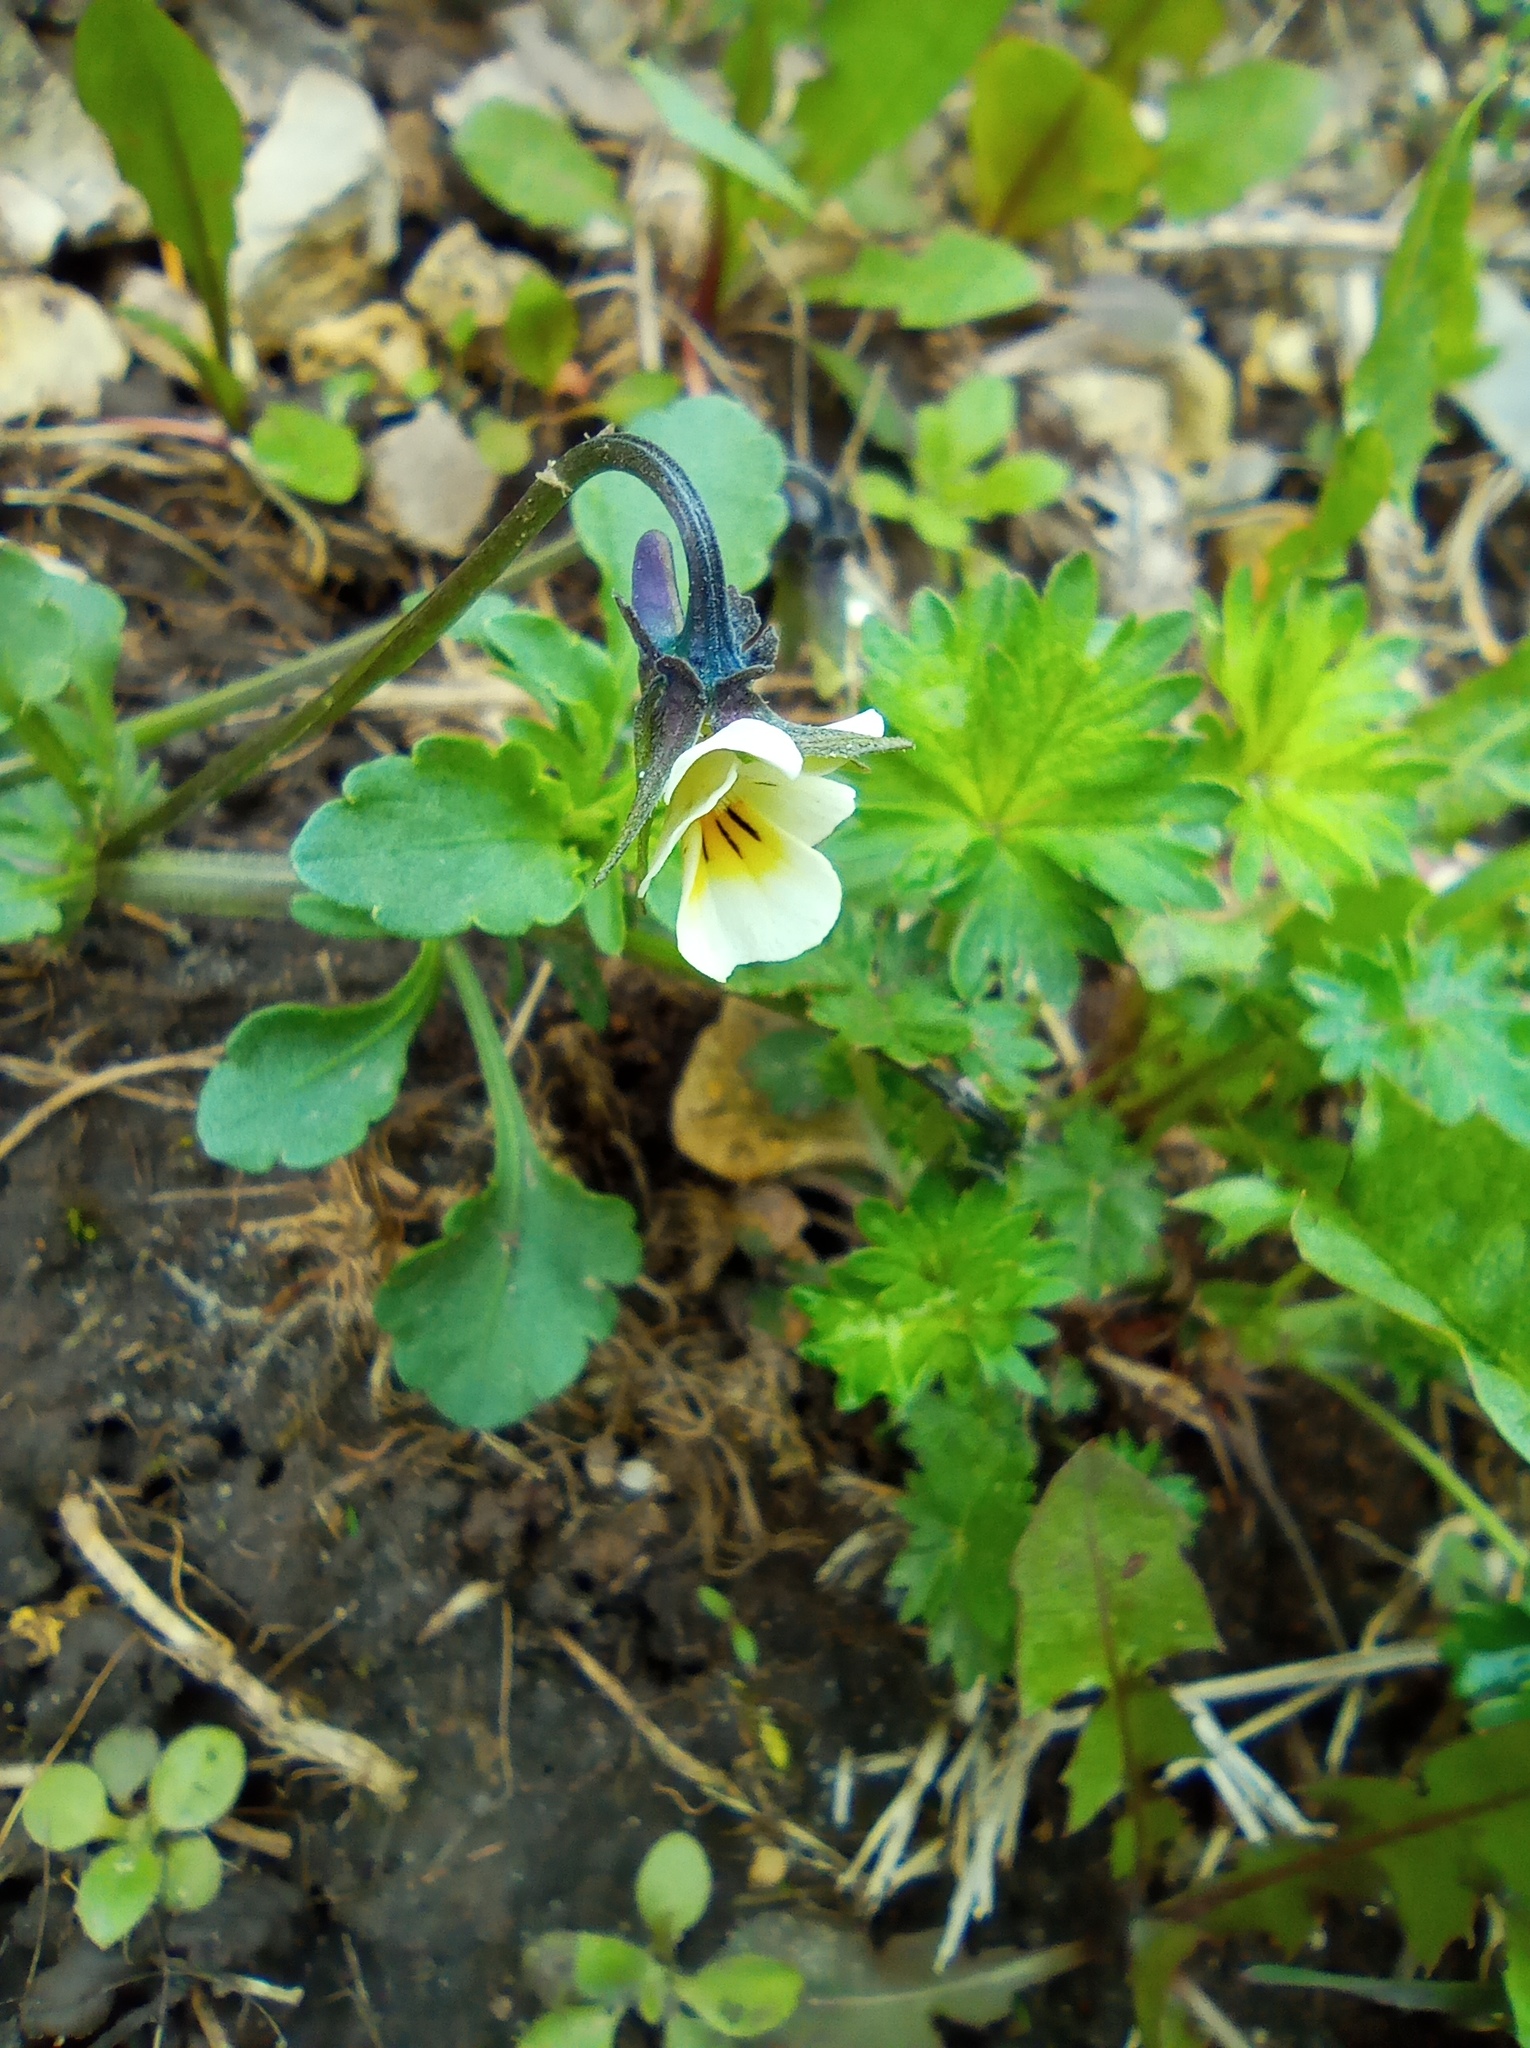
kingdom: Plantae
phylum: Tracheophyta
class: Magnoliopsida
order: Malpighiales
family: Violaceae
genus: Viola
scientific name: Viola arvensis
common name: Field pansy
